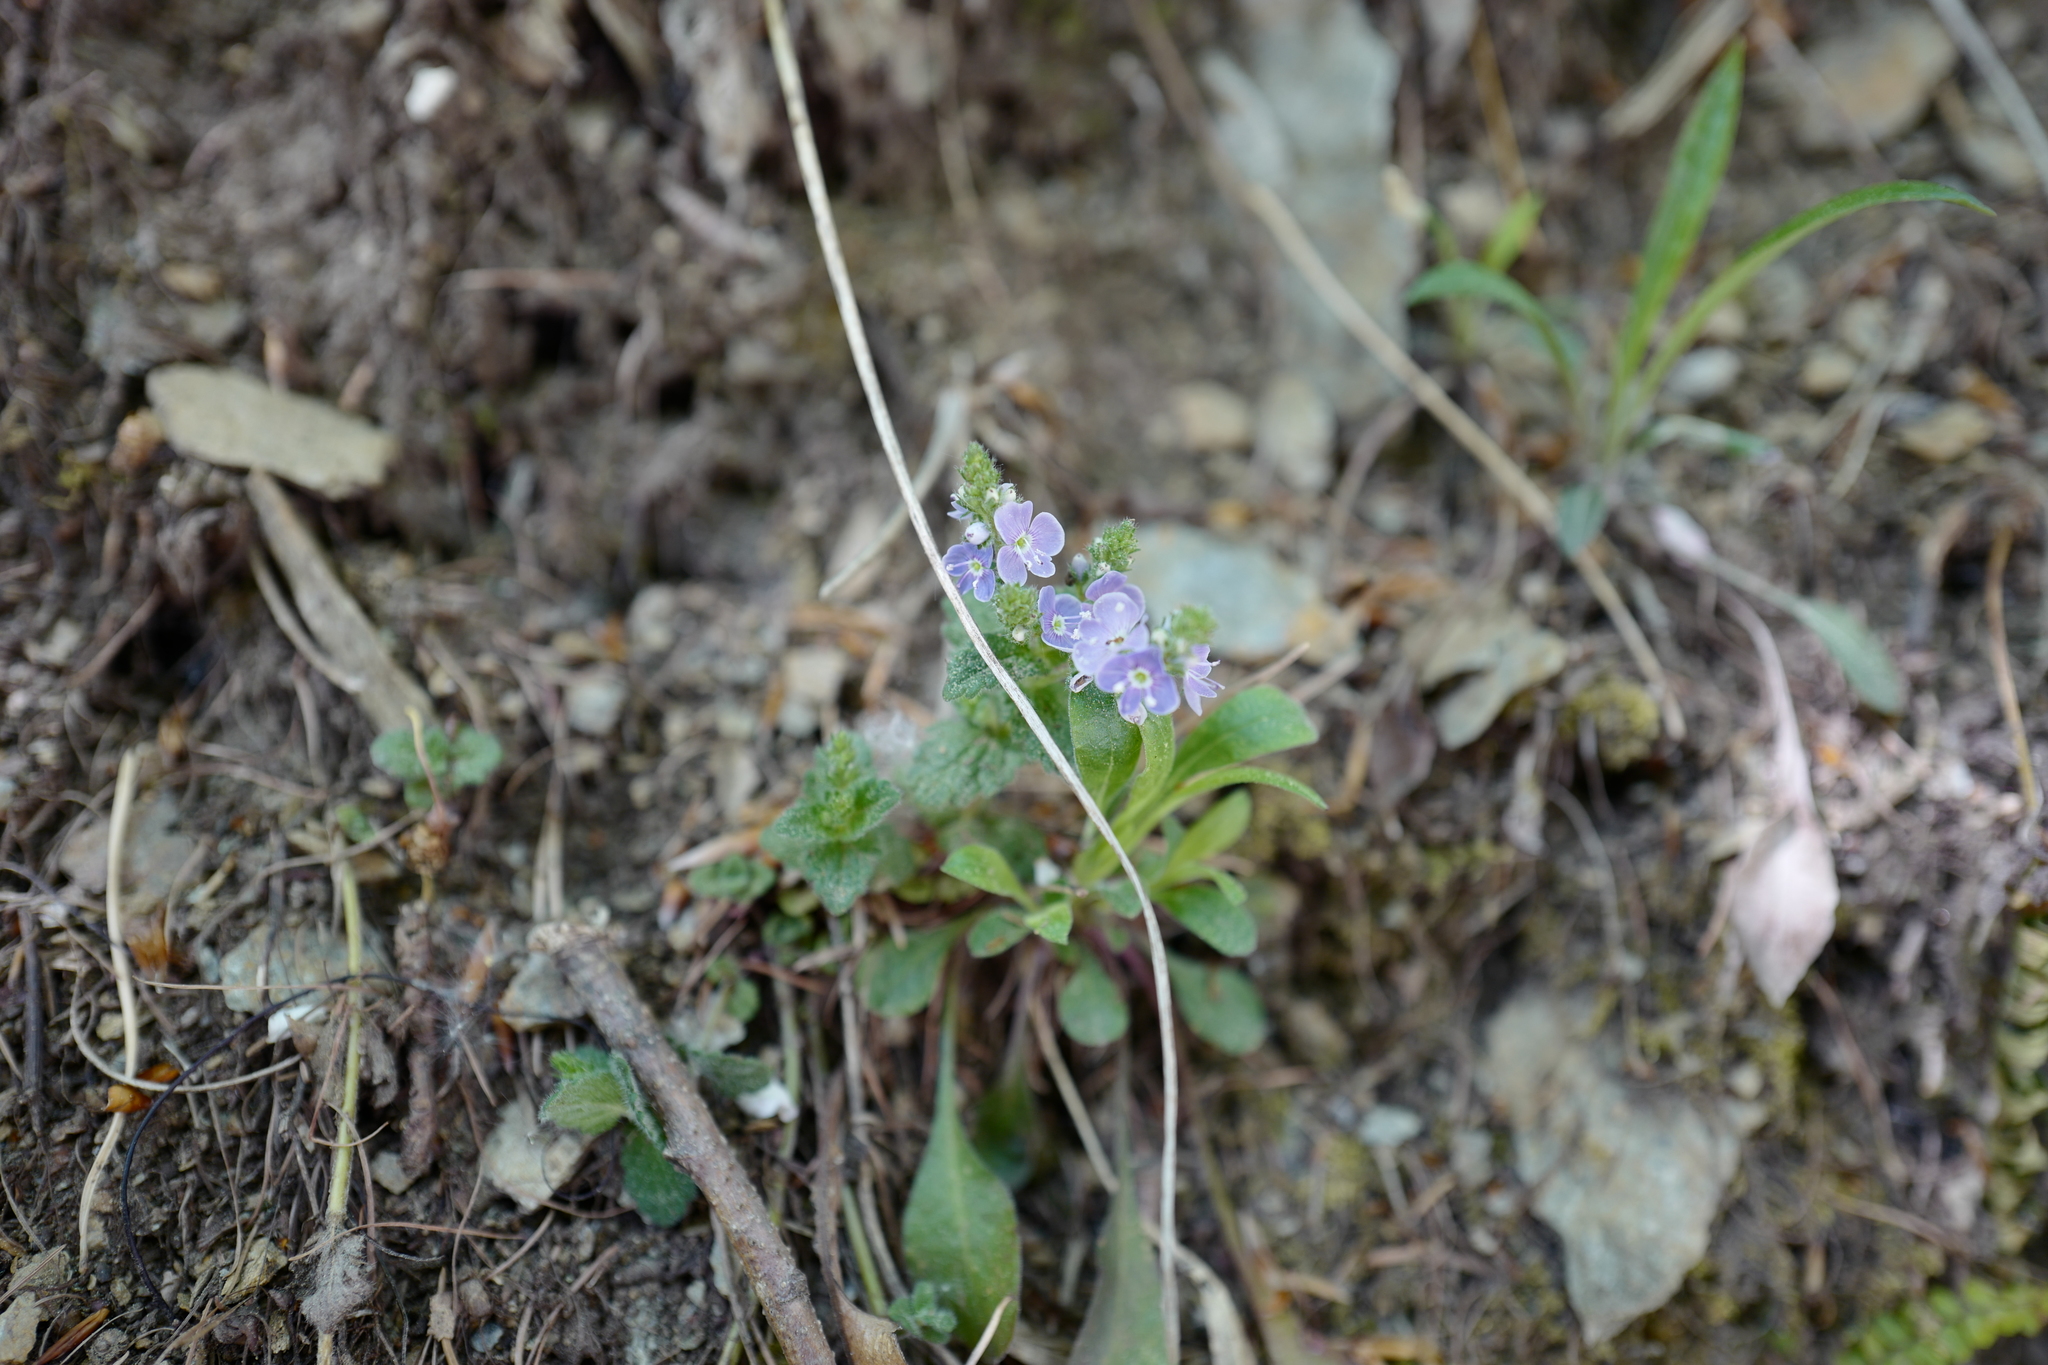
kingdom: Plantae
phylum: Tracheophyta
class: Magnoliopsida
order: Lamiales
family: Plantaginaceae
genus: Veronica
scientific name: Veronica chamaedrys
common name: Germander speedwell
